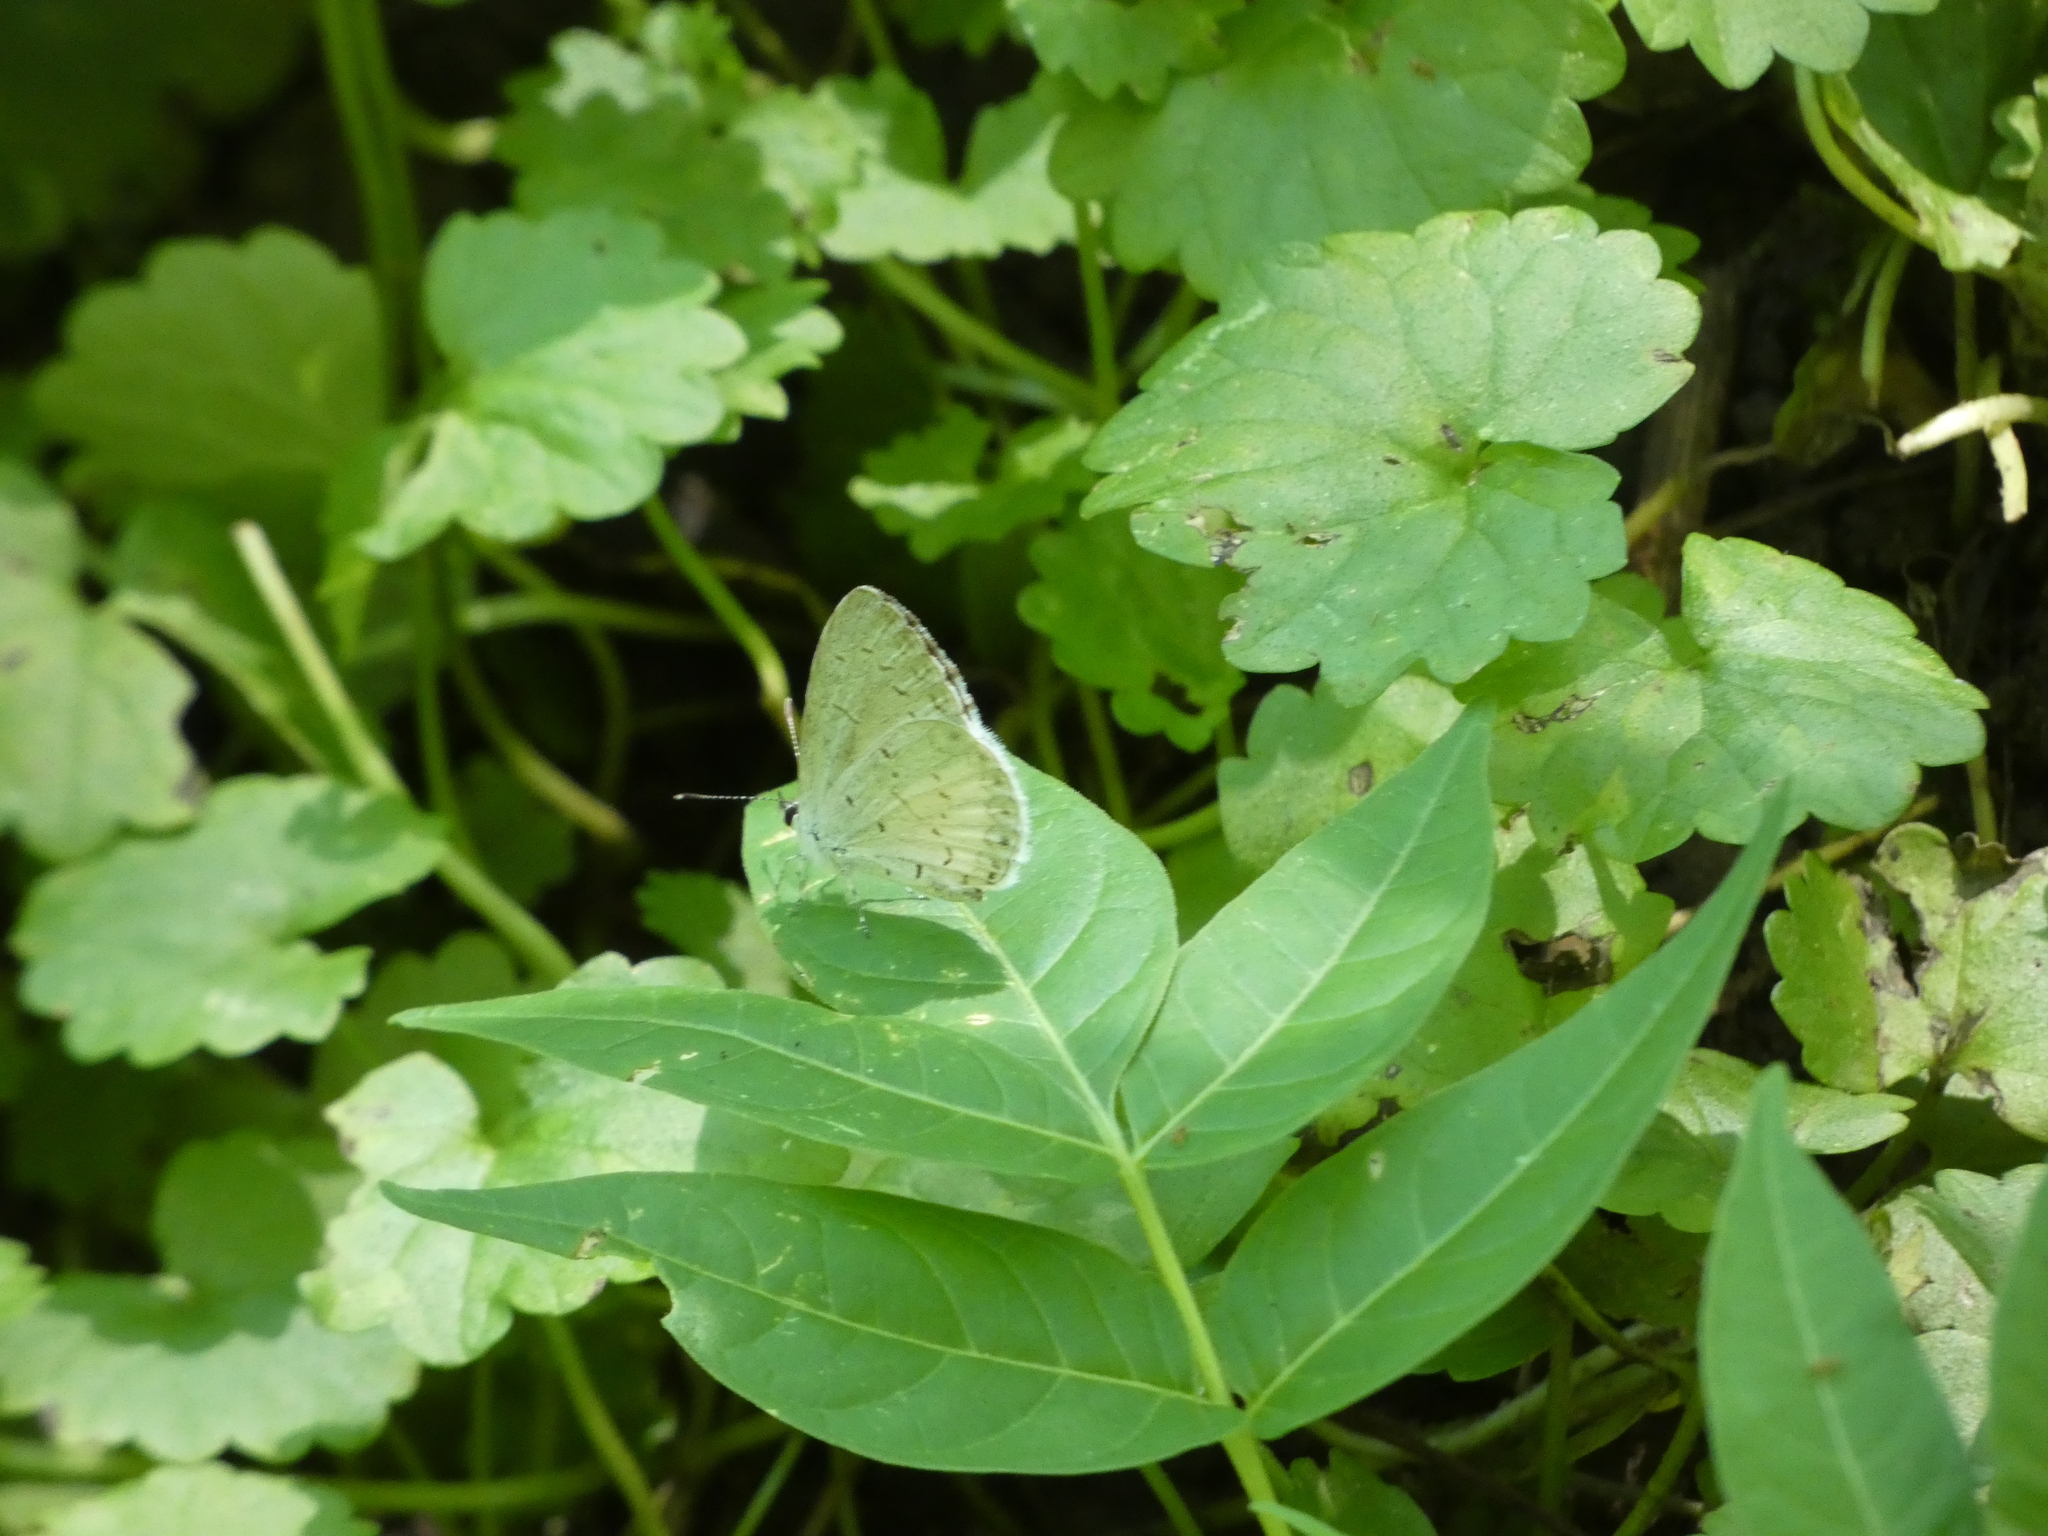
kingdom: Animalia
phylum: Arthropoda
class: Insecta
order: Lepidoptera
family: Lycaenidae
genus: Cyaniris
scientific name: Cyaniris neglecta
